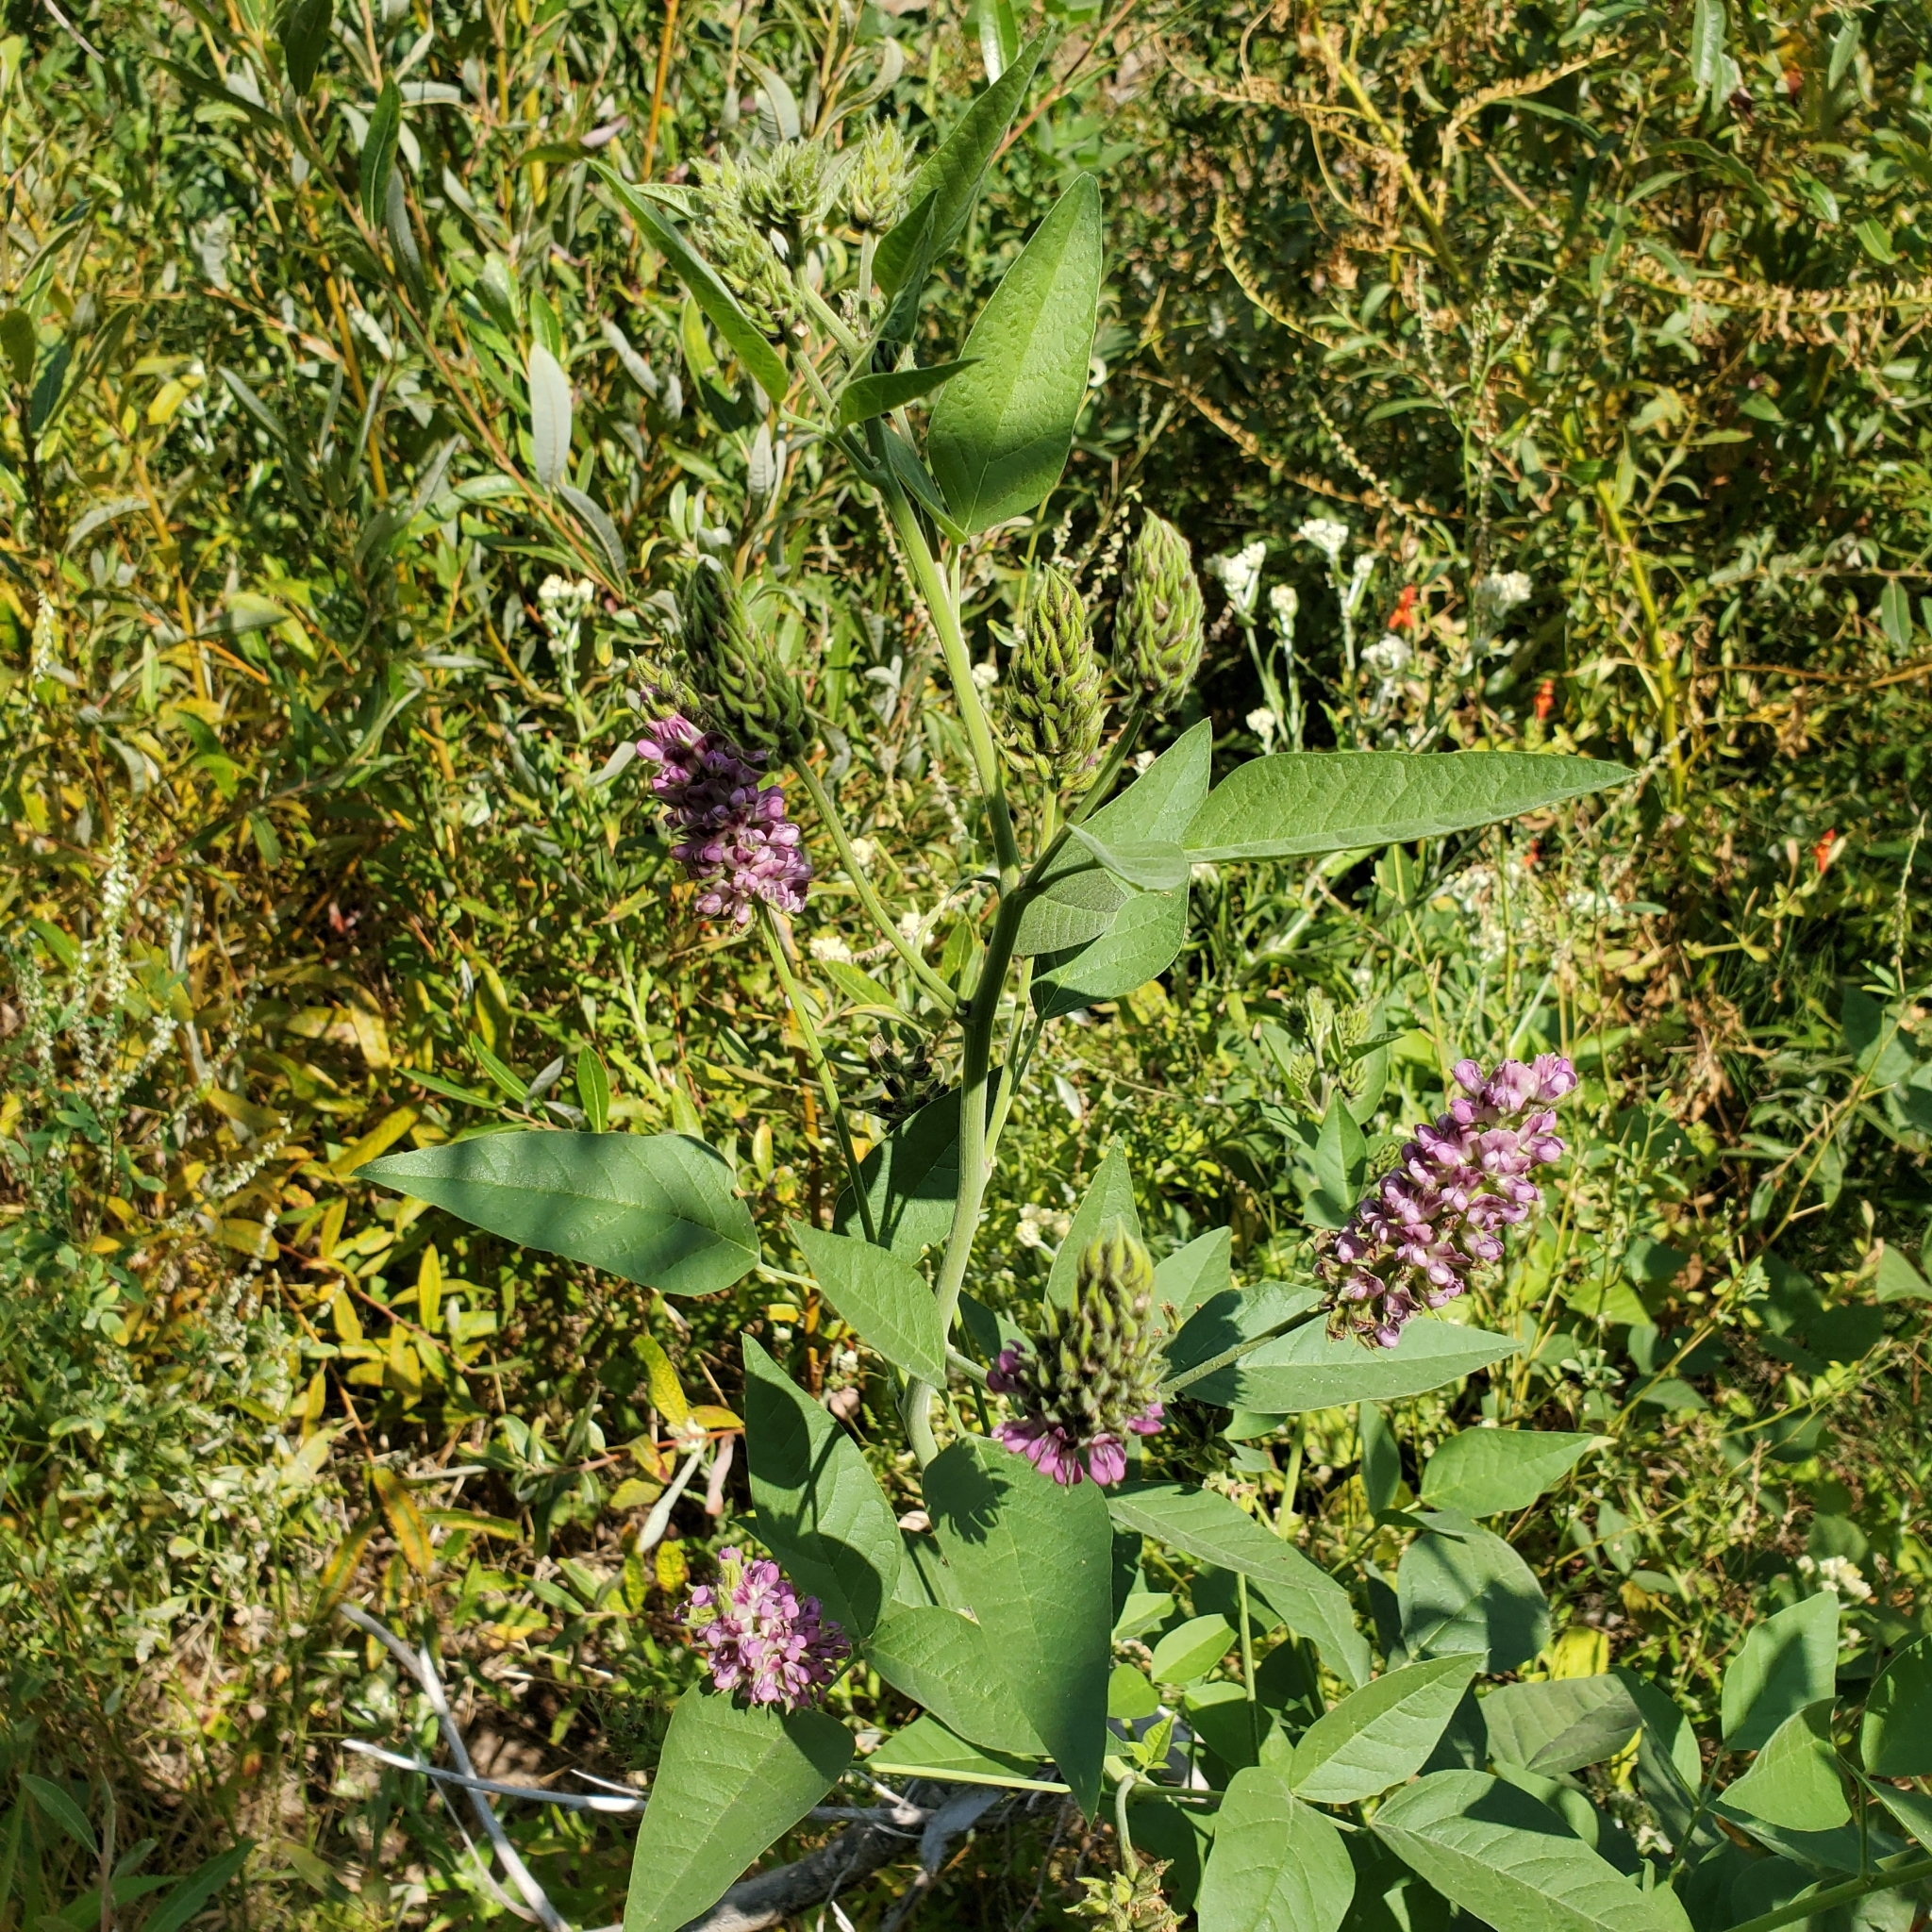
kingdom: Plantae
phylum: Tracheophyta
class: Magnoliopsida
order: Fabales
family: Fabaceae
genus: Hoita
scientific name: Hoita macrostachya
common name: Leatherroot
